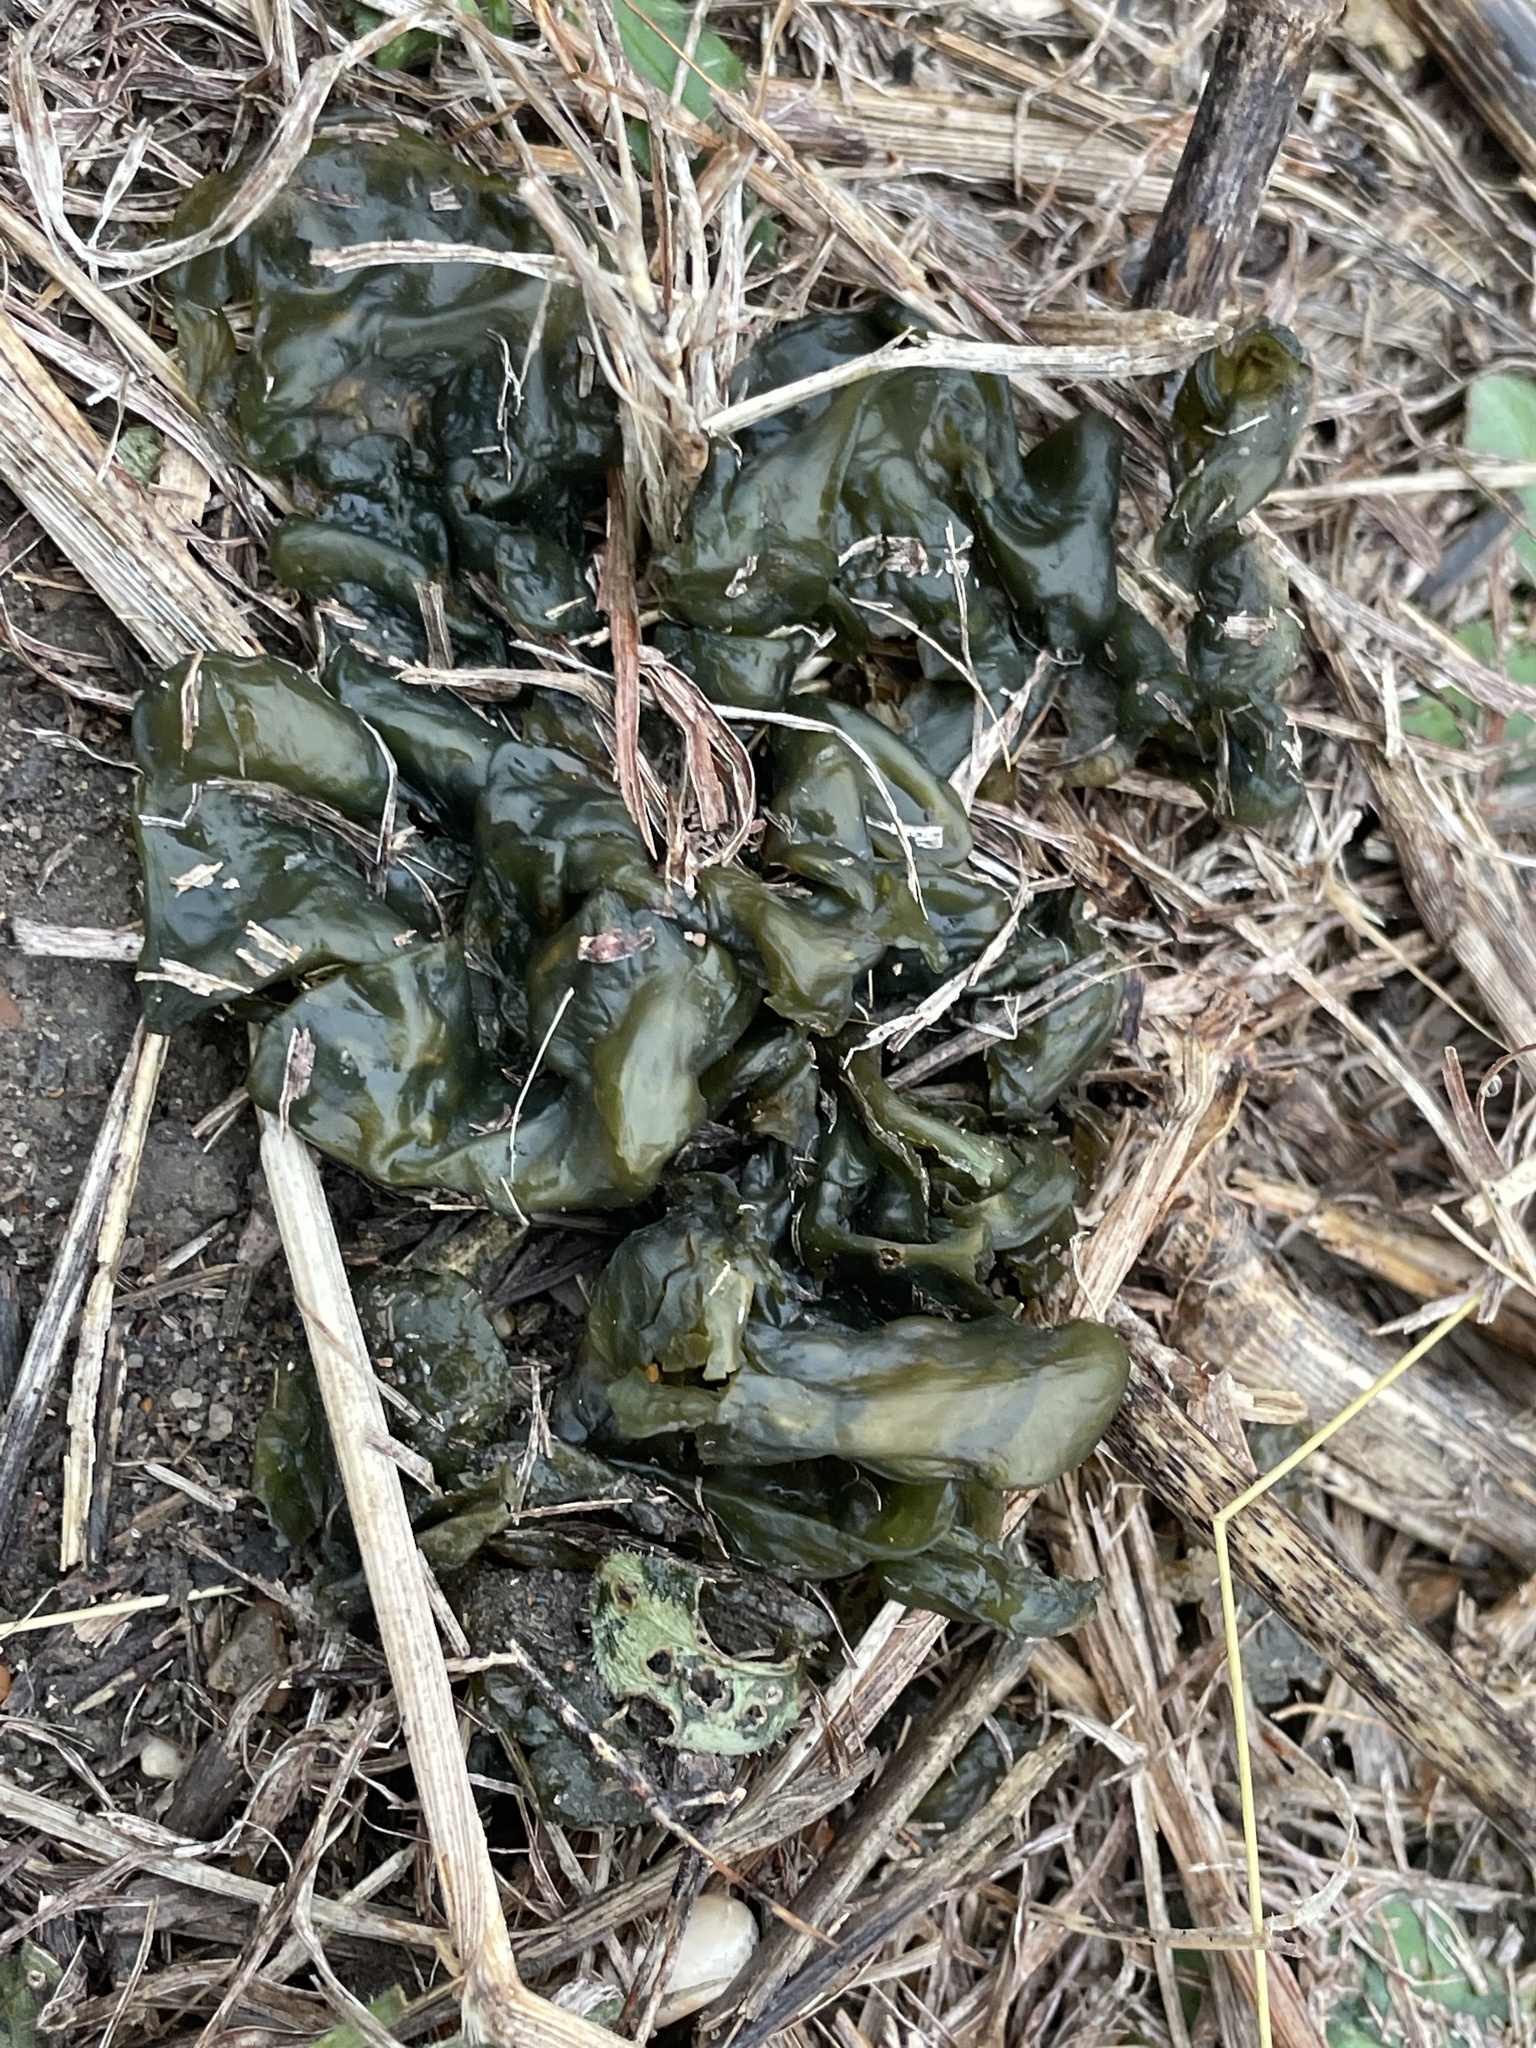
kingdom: Bacteria
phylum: Cyanobacteria
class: Cyanobacteriia
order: Cyanobacteriales
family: Nostocaceae
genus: Nostoc
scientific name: Nostoc commune
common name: Star jelly
